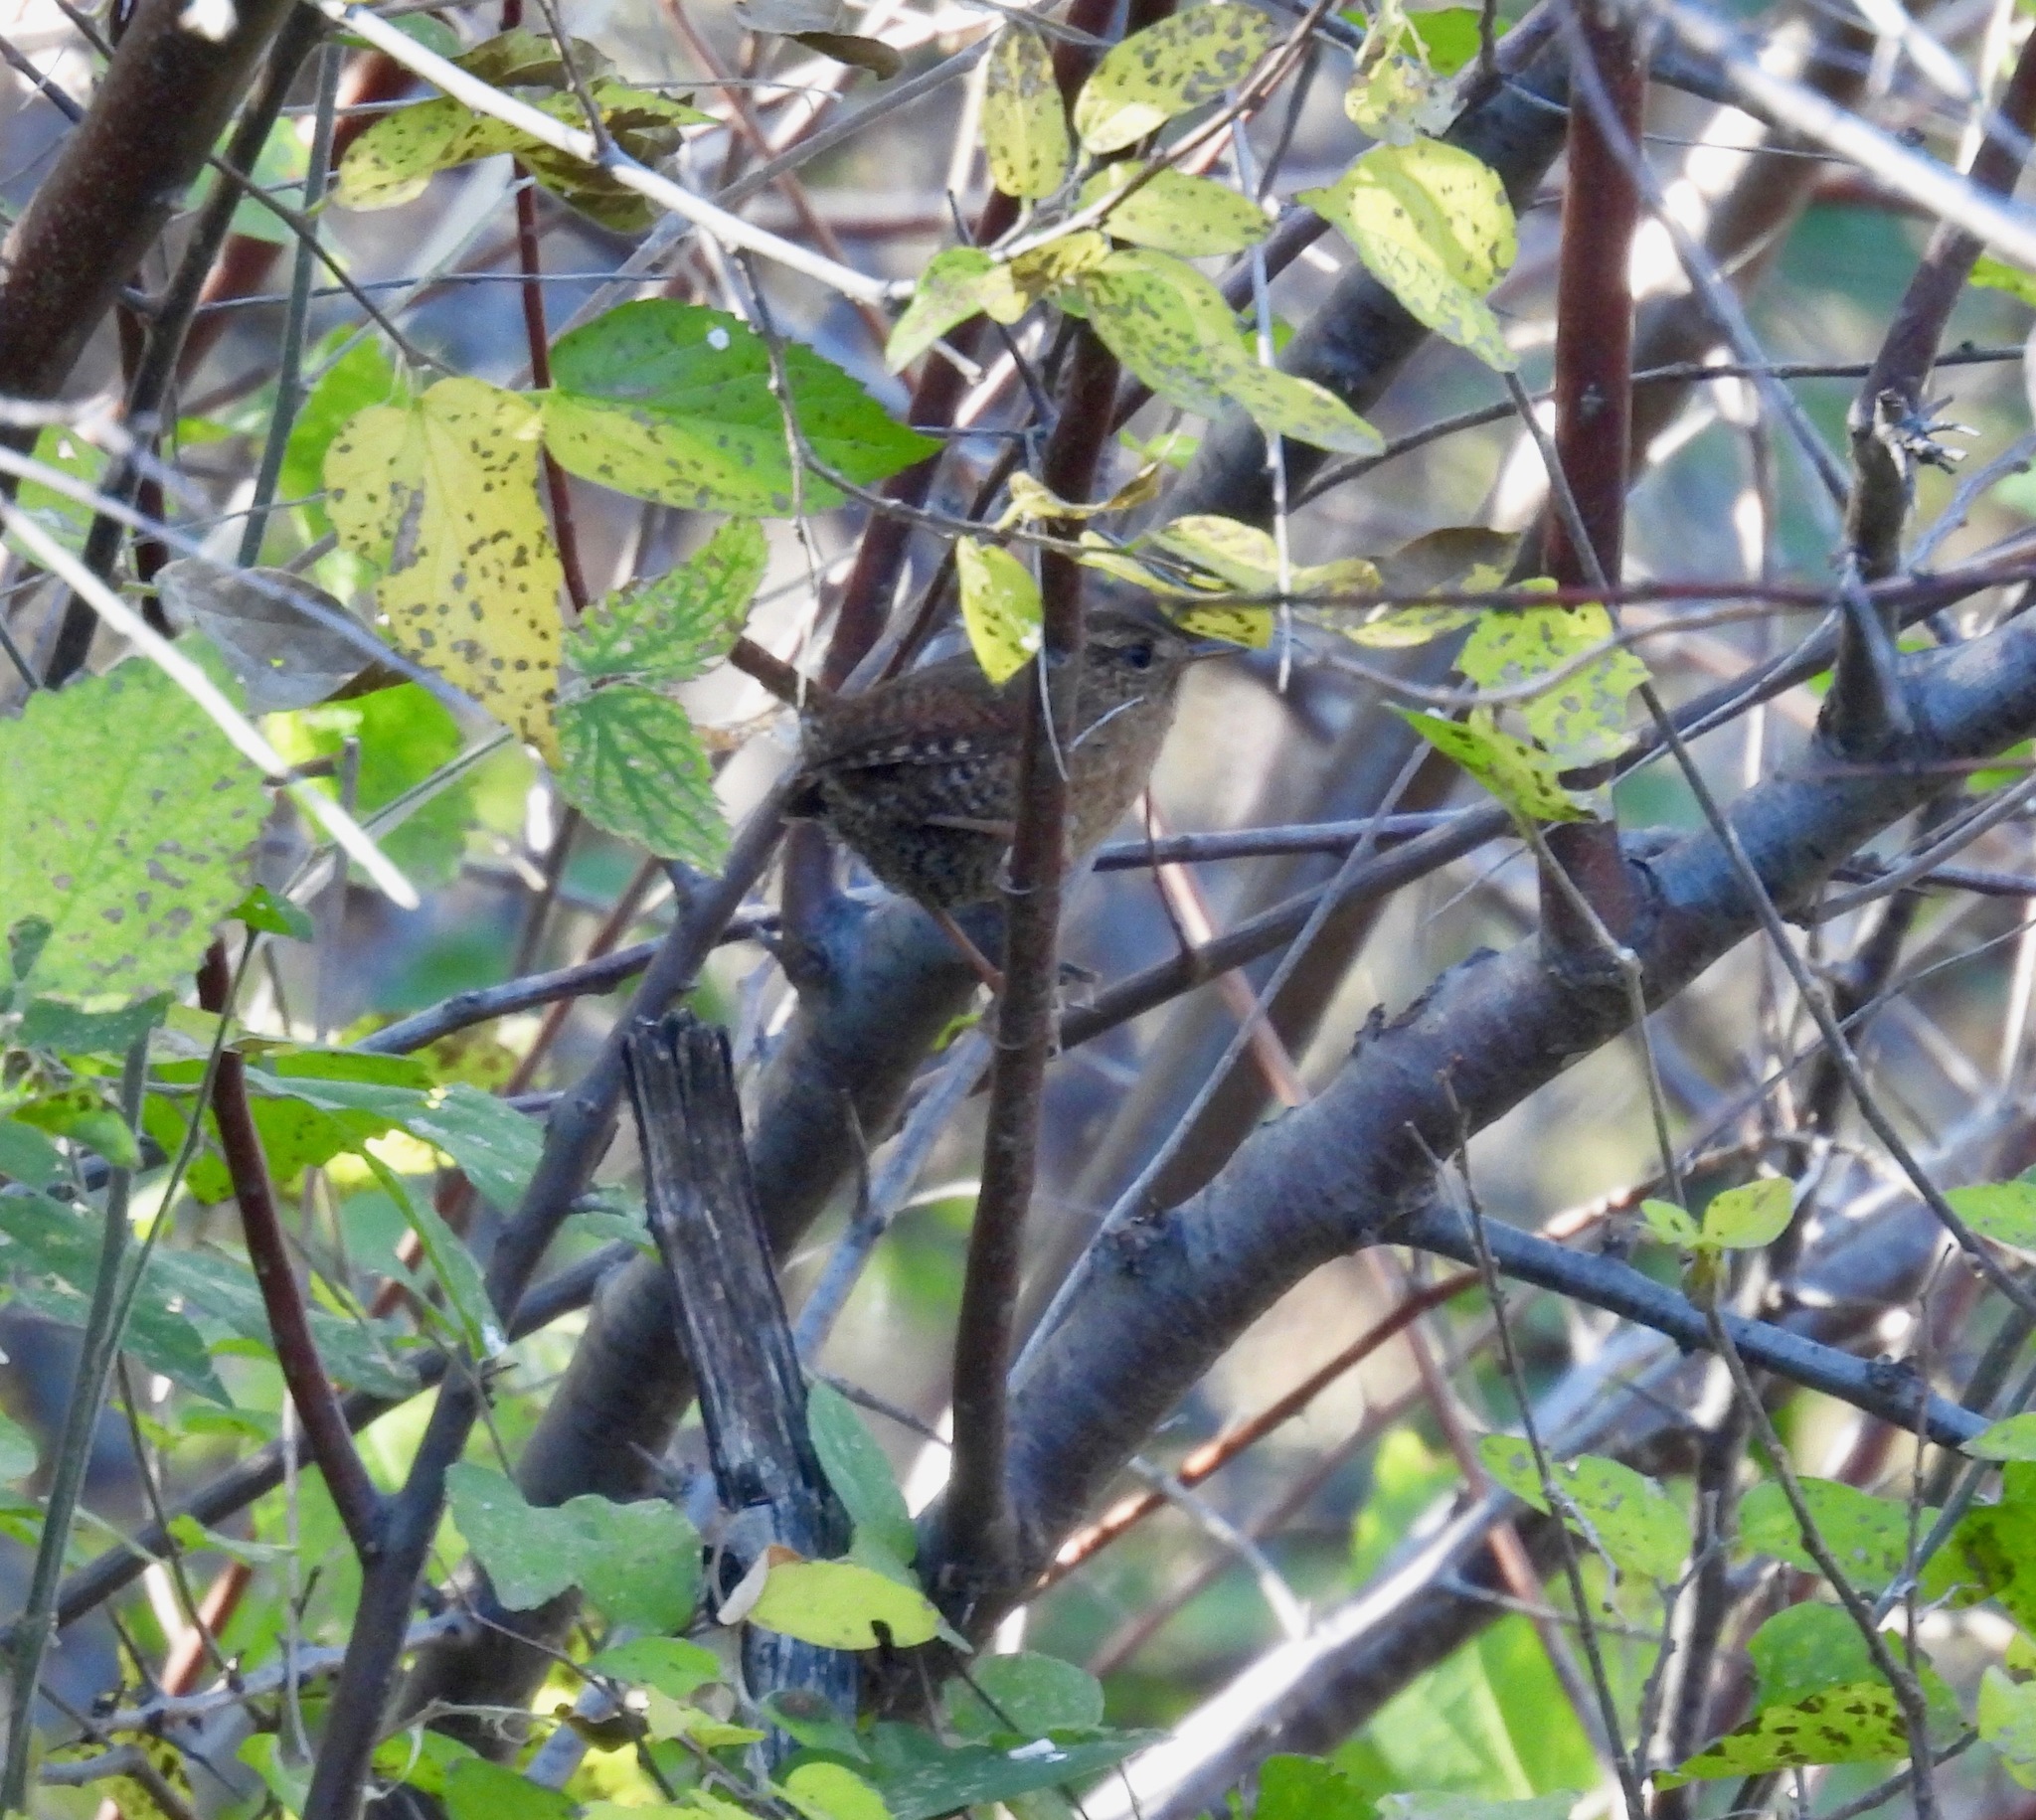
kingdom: Animalia
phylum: Chordata
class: Aves
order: Passeriformes
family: Troglodytidae
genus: Troglodytes
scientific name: Troglodytes pacificus
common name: Pacific wren
